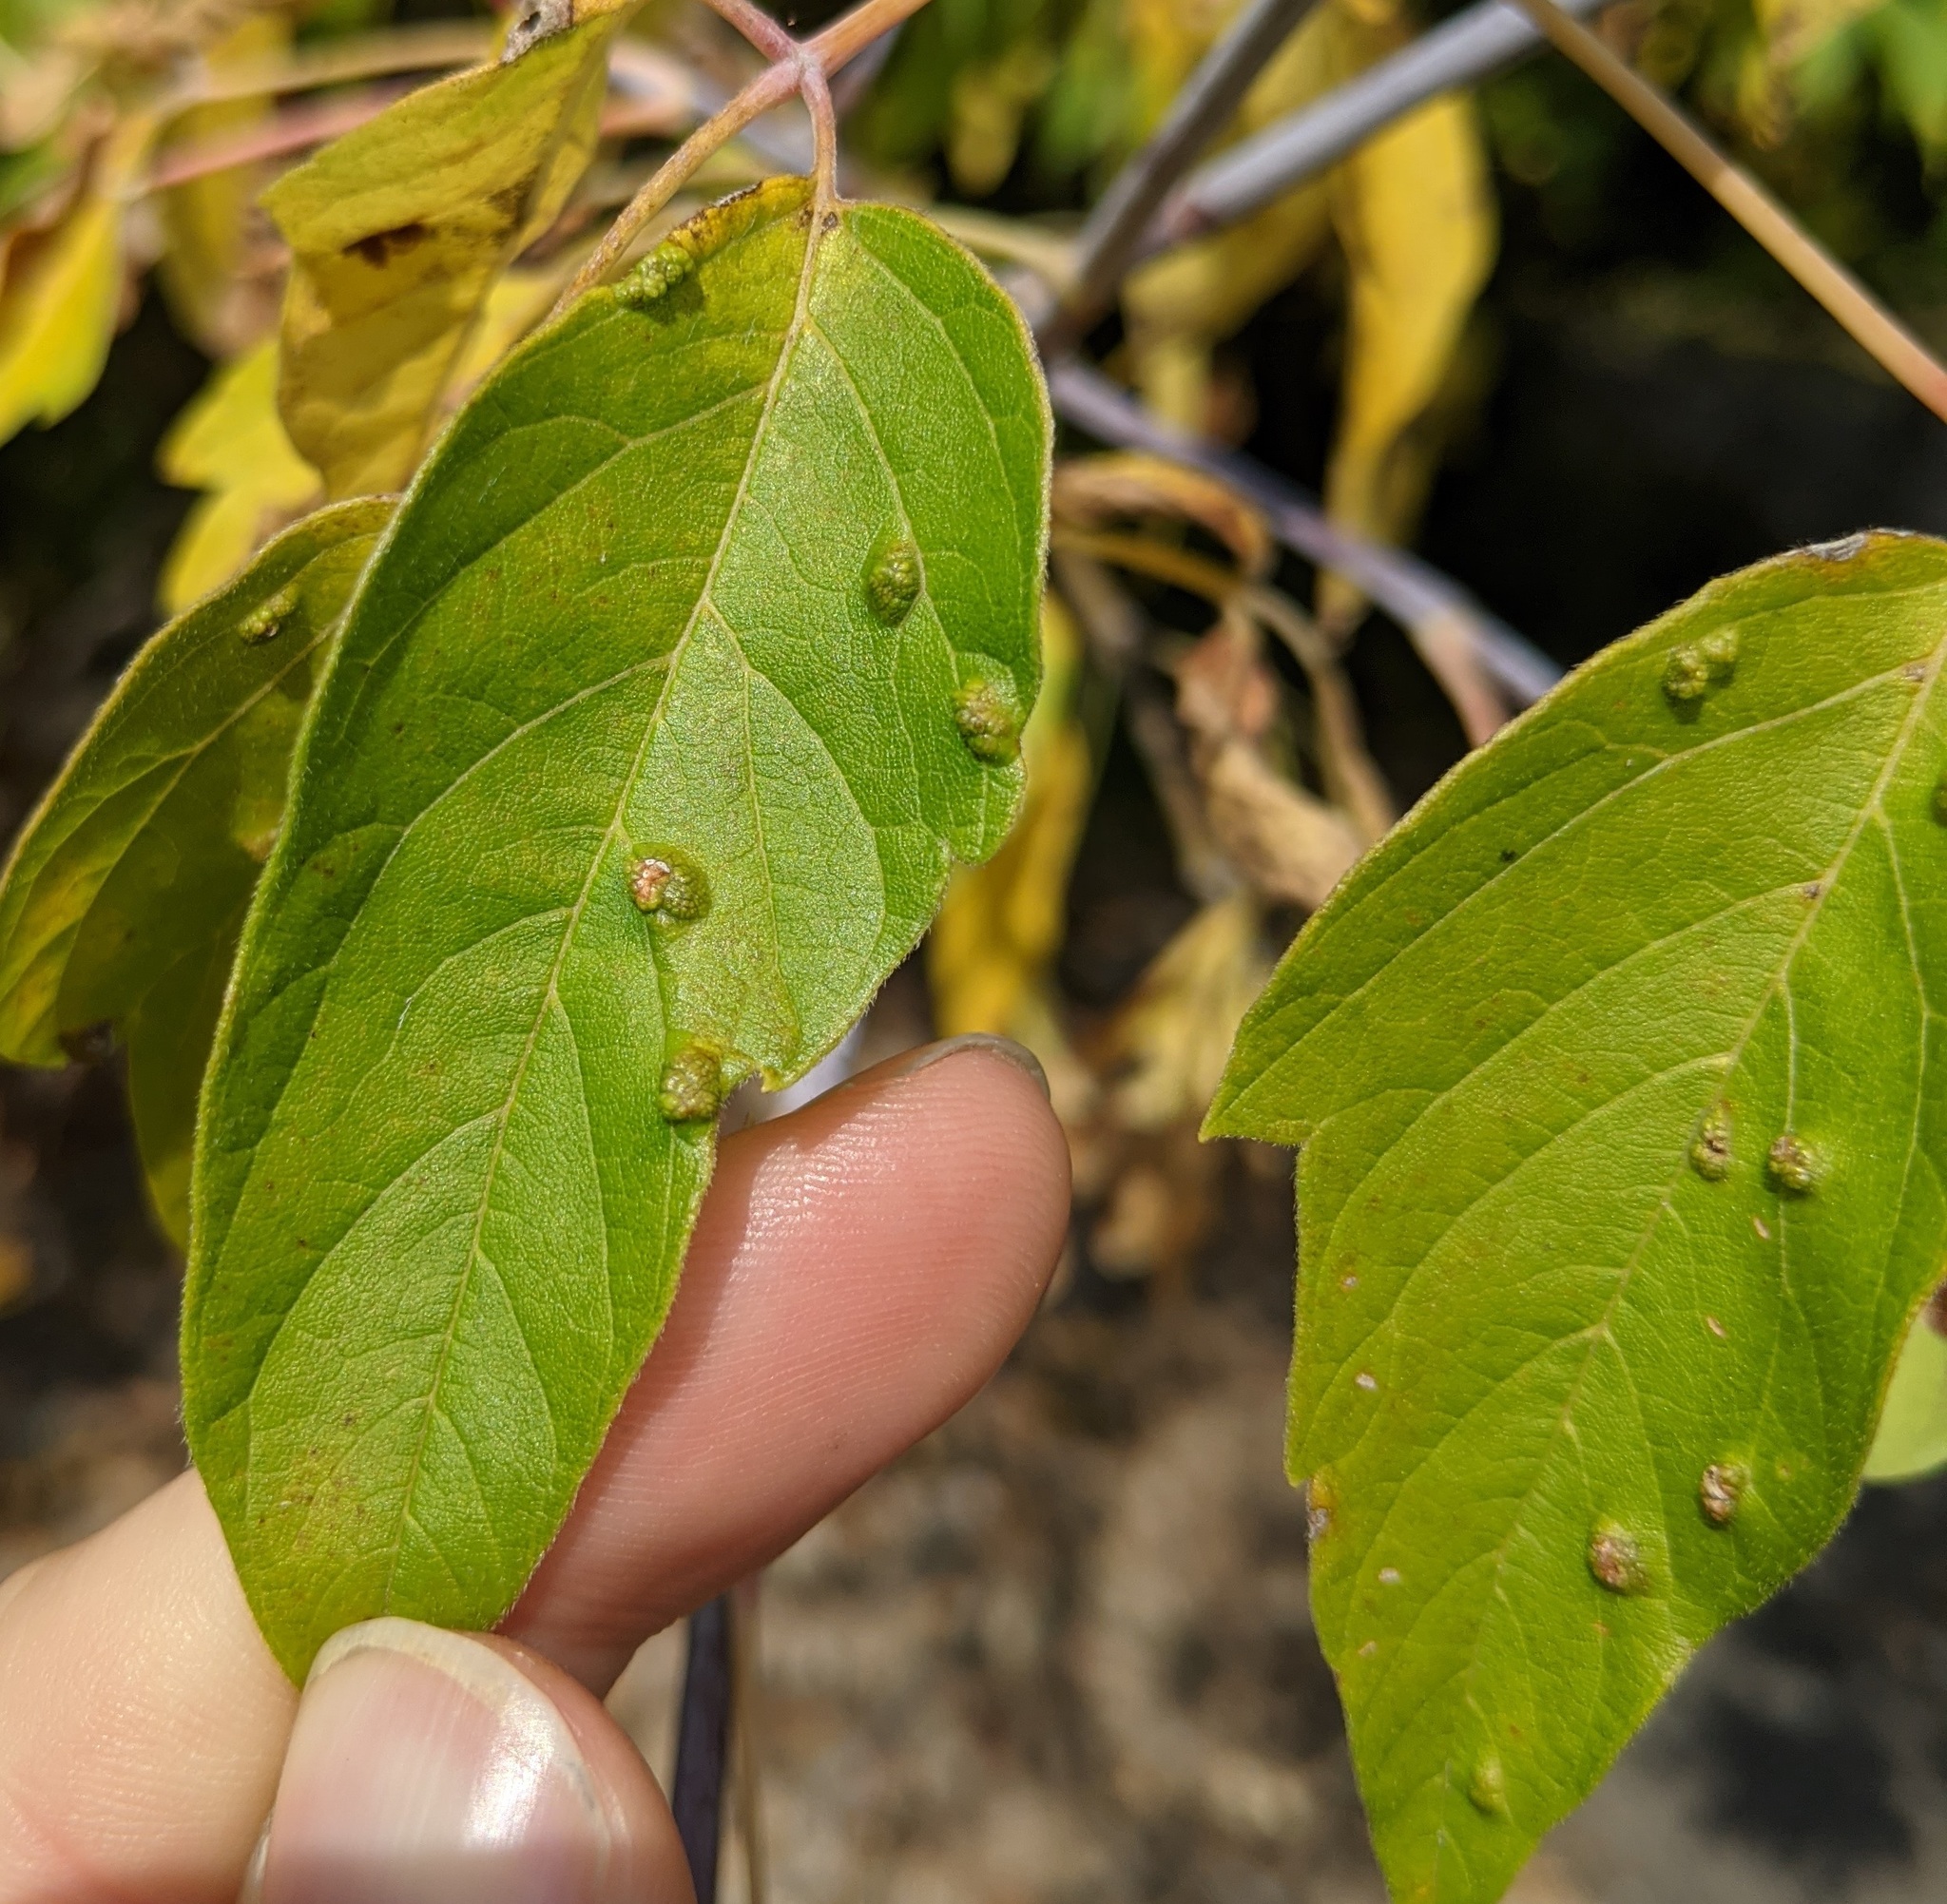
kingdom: Animalia
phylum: Arthropoda
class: Arachnida
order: Trombidiformes
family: Eriophyidae
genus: Aceria
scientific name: Aceria
